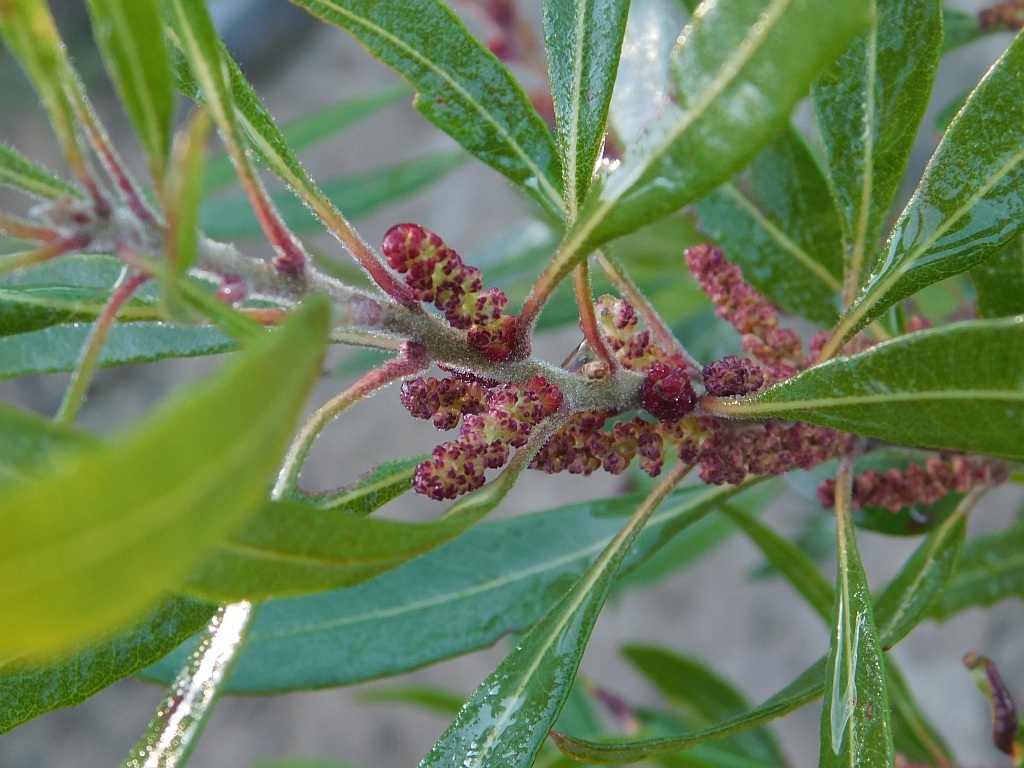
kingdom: Plantae
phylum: Tracheophyta
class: Magnoliopsida
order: Fagales
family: Myricaceae
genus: Morella
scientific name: Morella integra
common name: Western lance-leaved wax-berry
